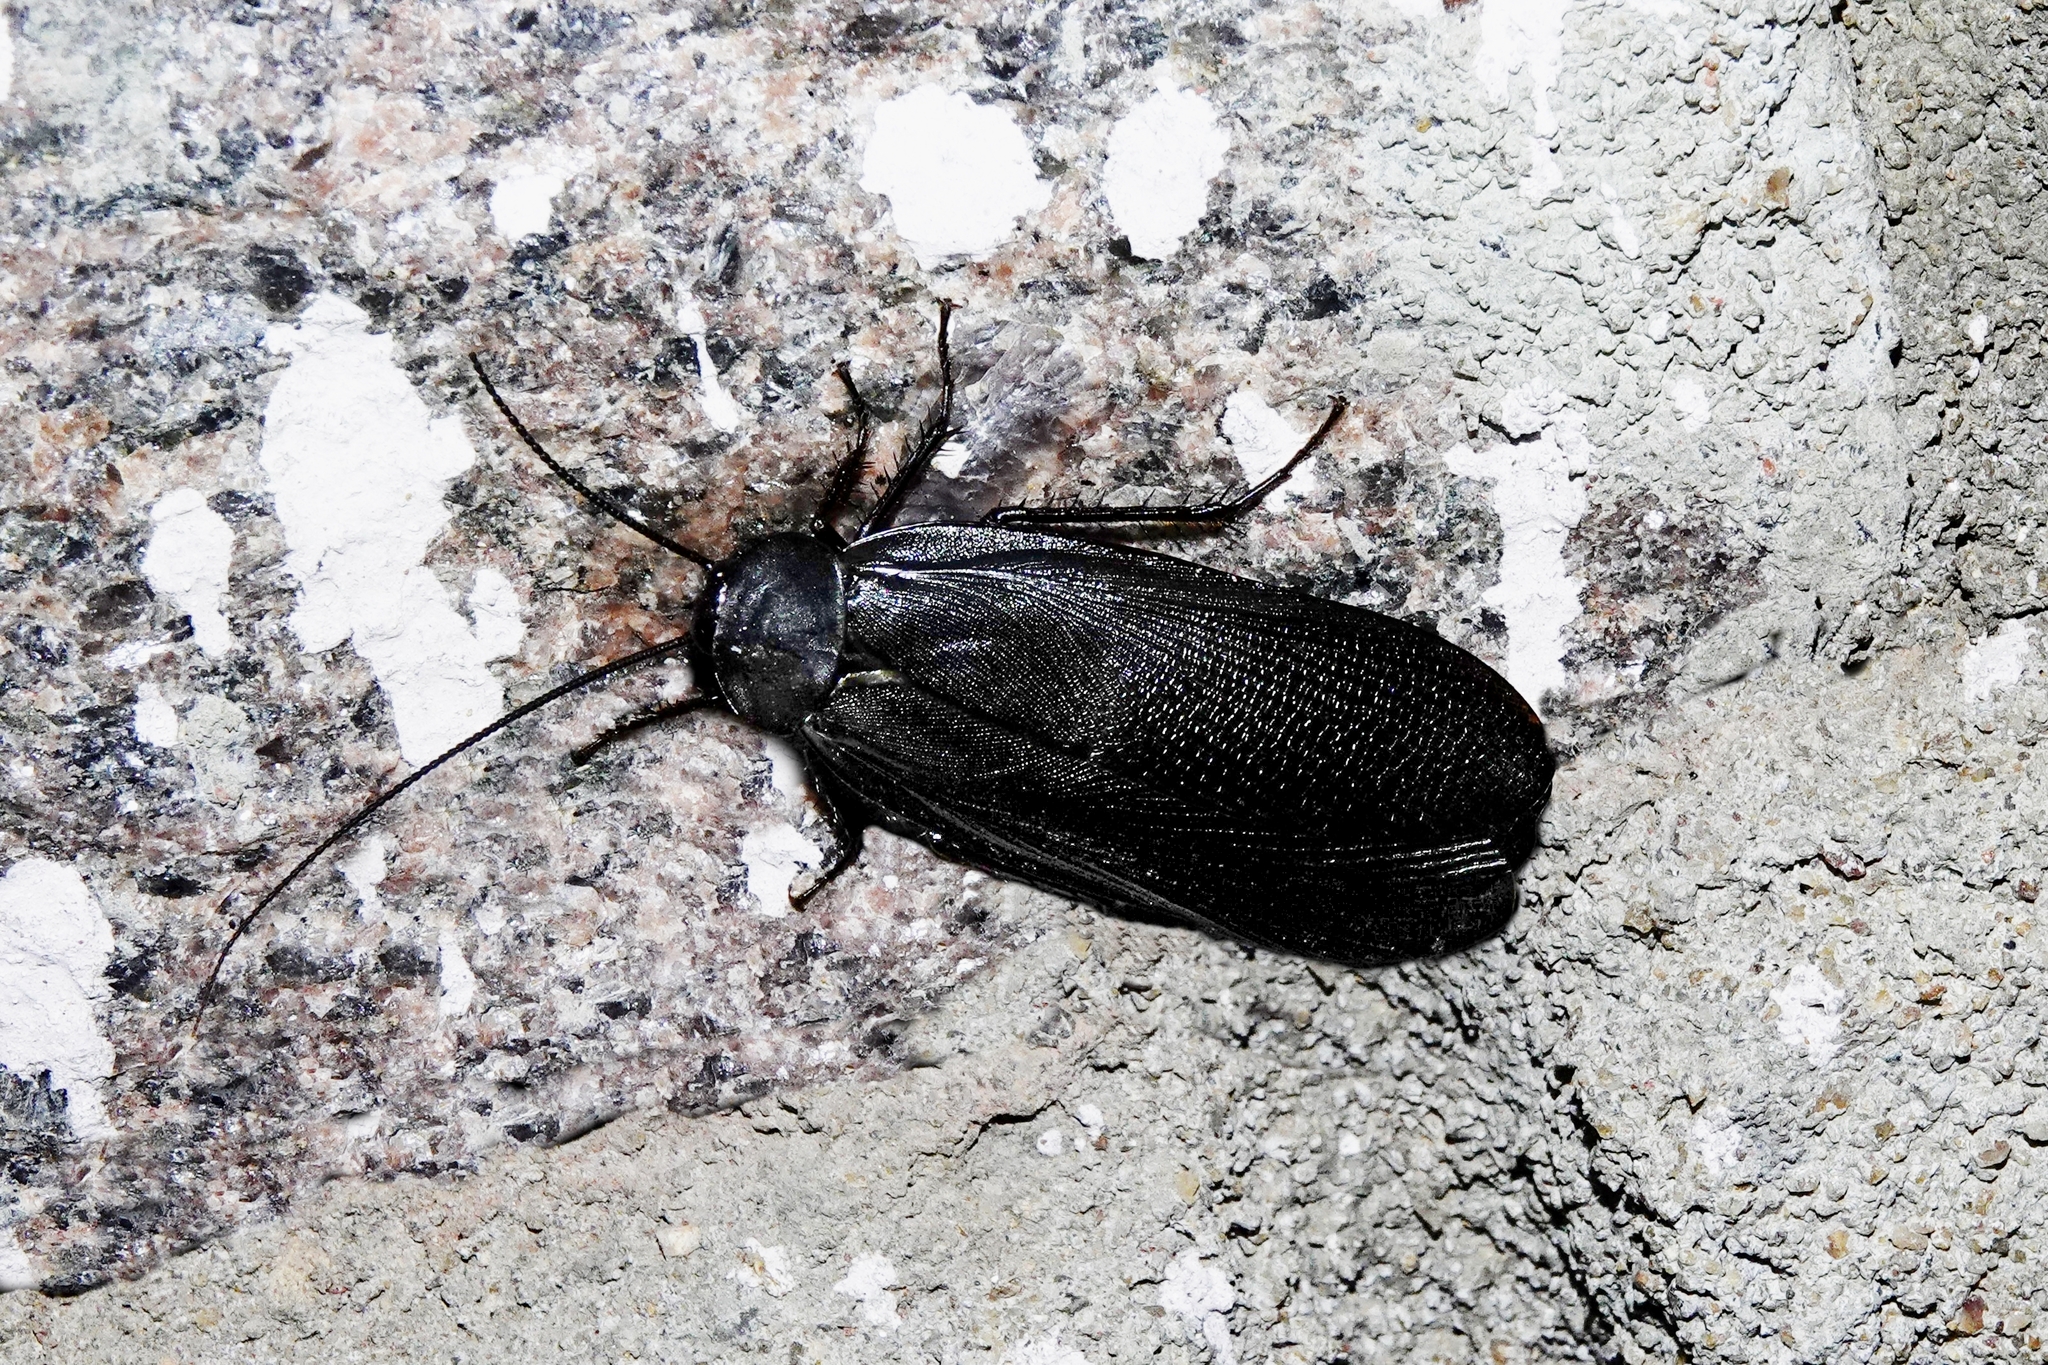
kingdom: Animalia
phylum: Arthropoda
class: Insecta
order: Blattodea
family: Blattidae
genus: Deropeltis
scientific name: Deropeltis madecassa
